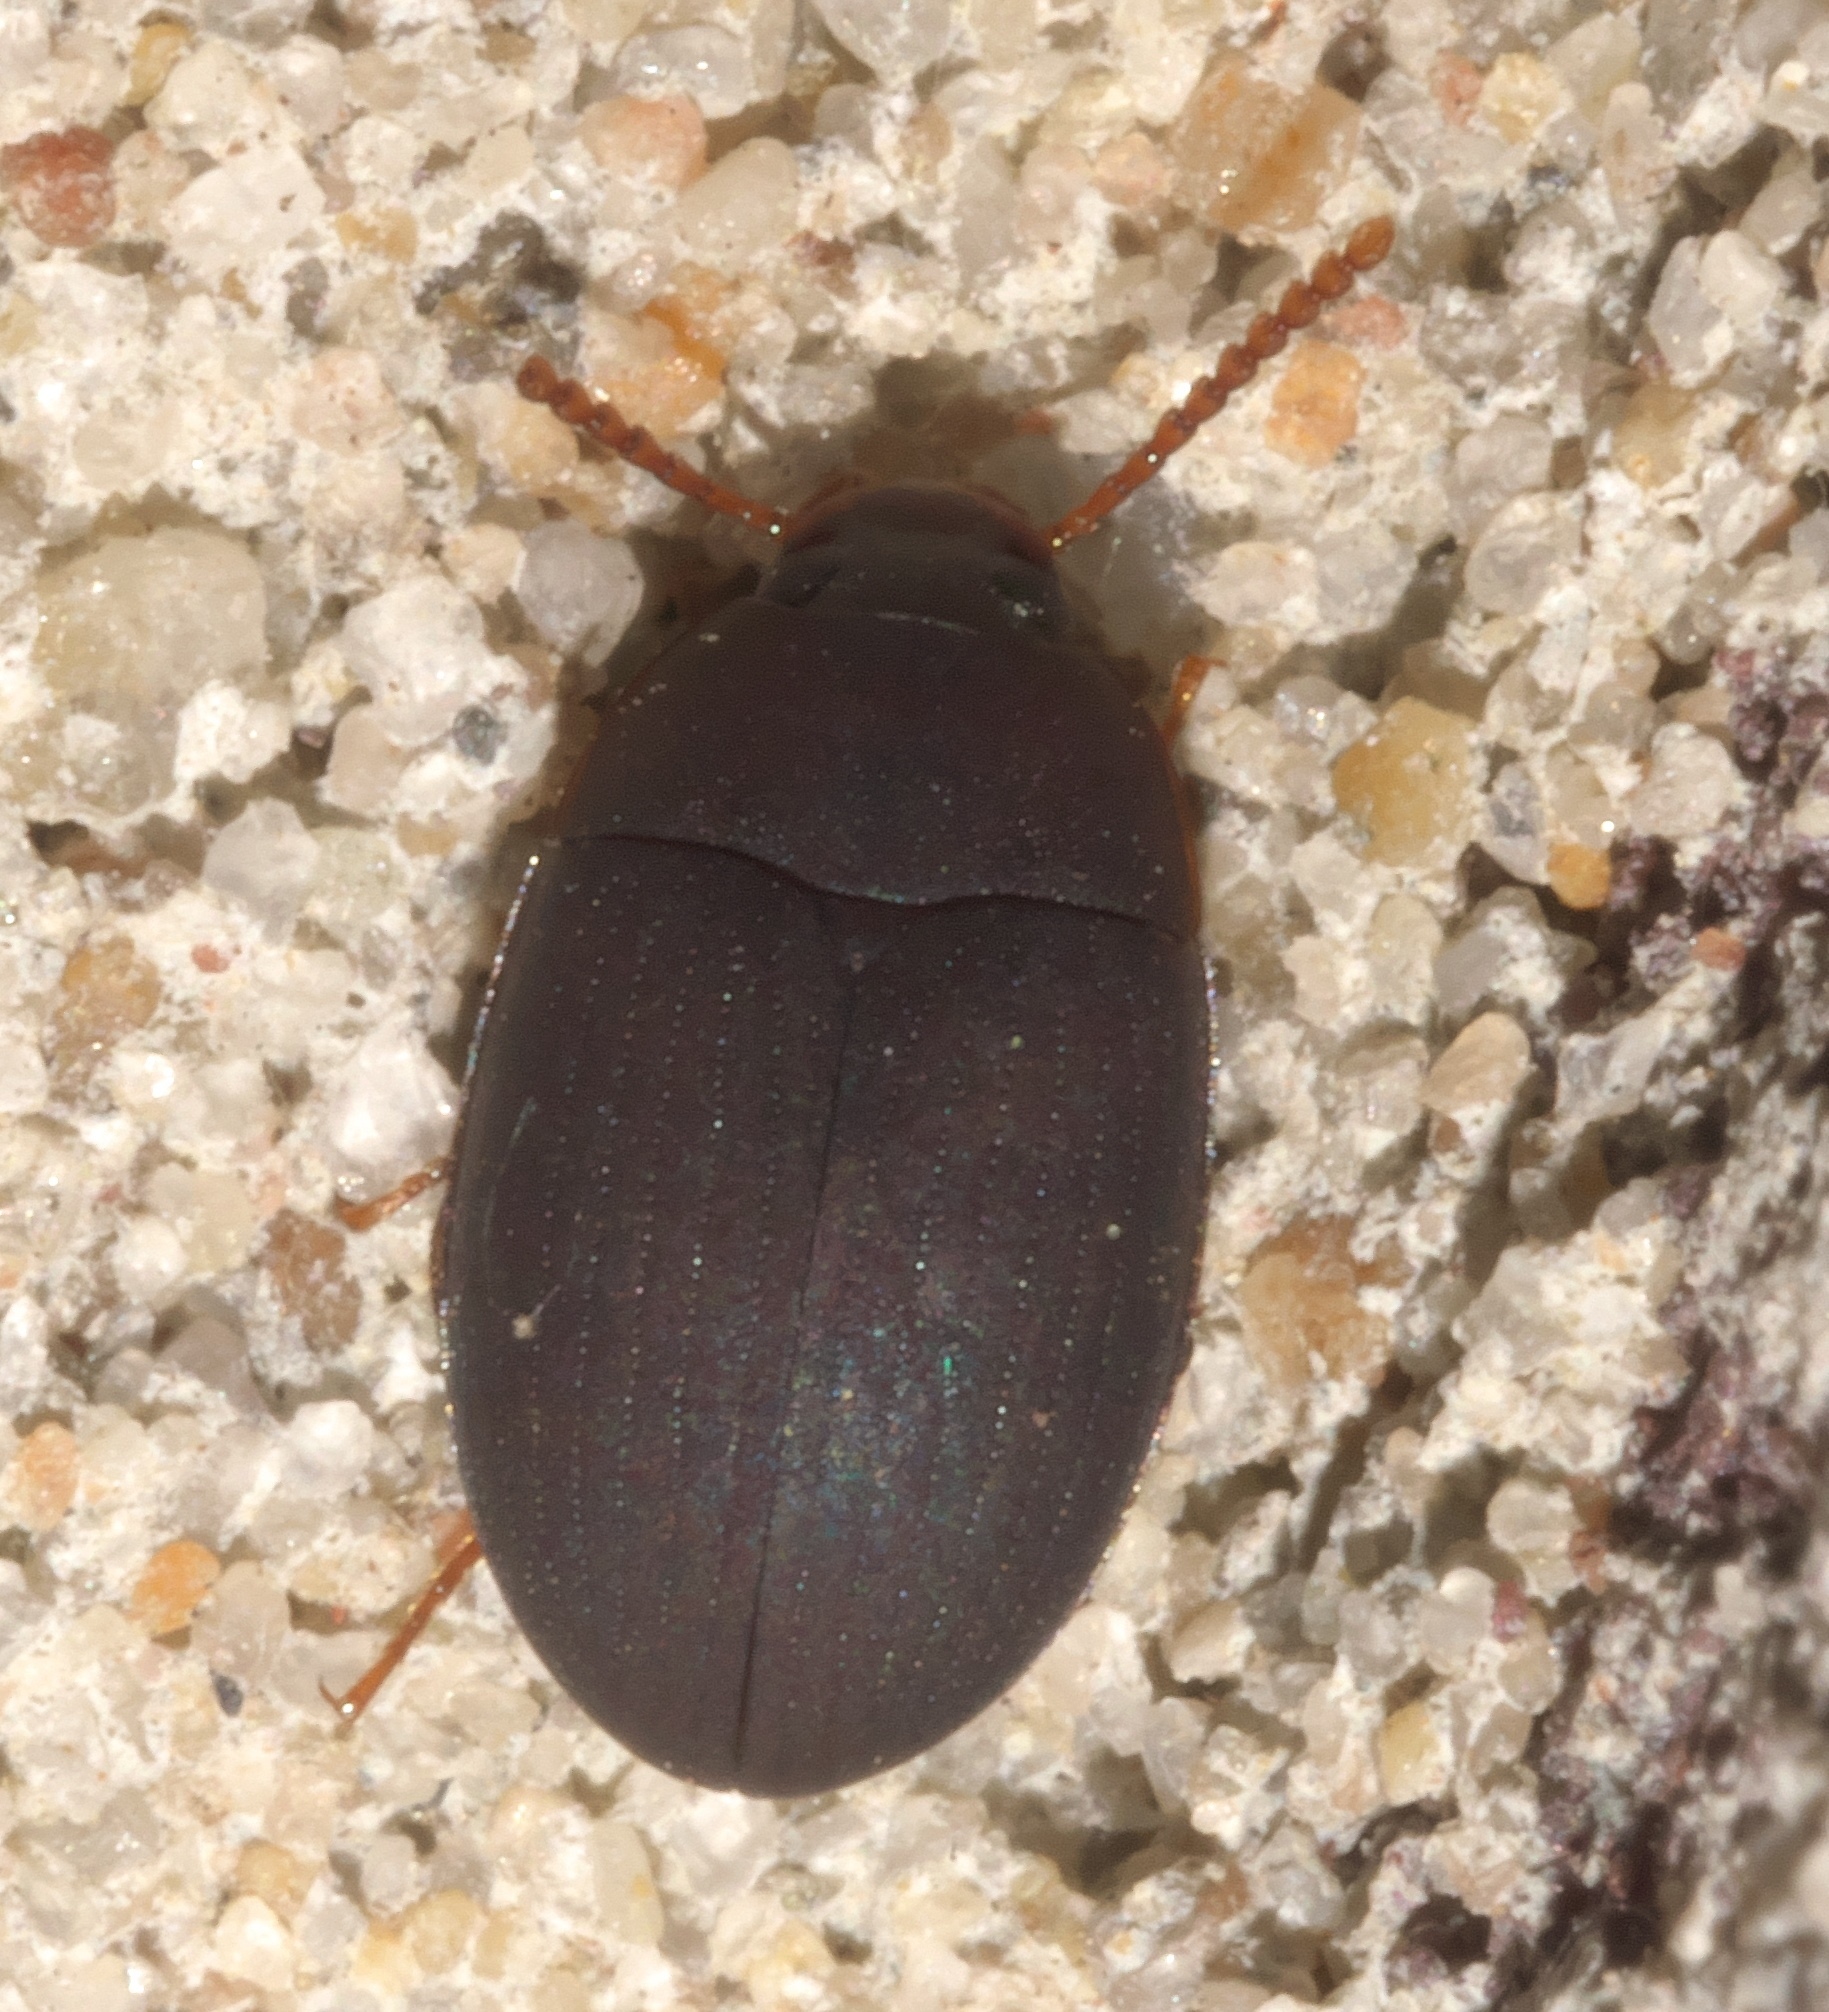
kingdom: Animalia
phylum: Arthropoda
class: Insecta
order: Coleoptera
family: Tenebrionidae
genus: Platydema
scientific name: Platydema ruficornis
